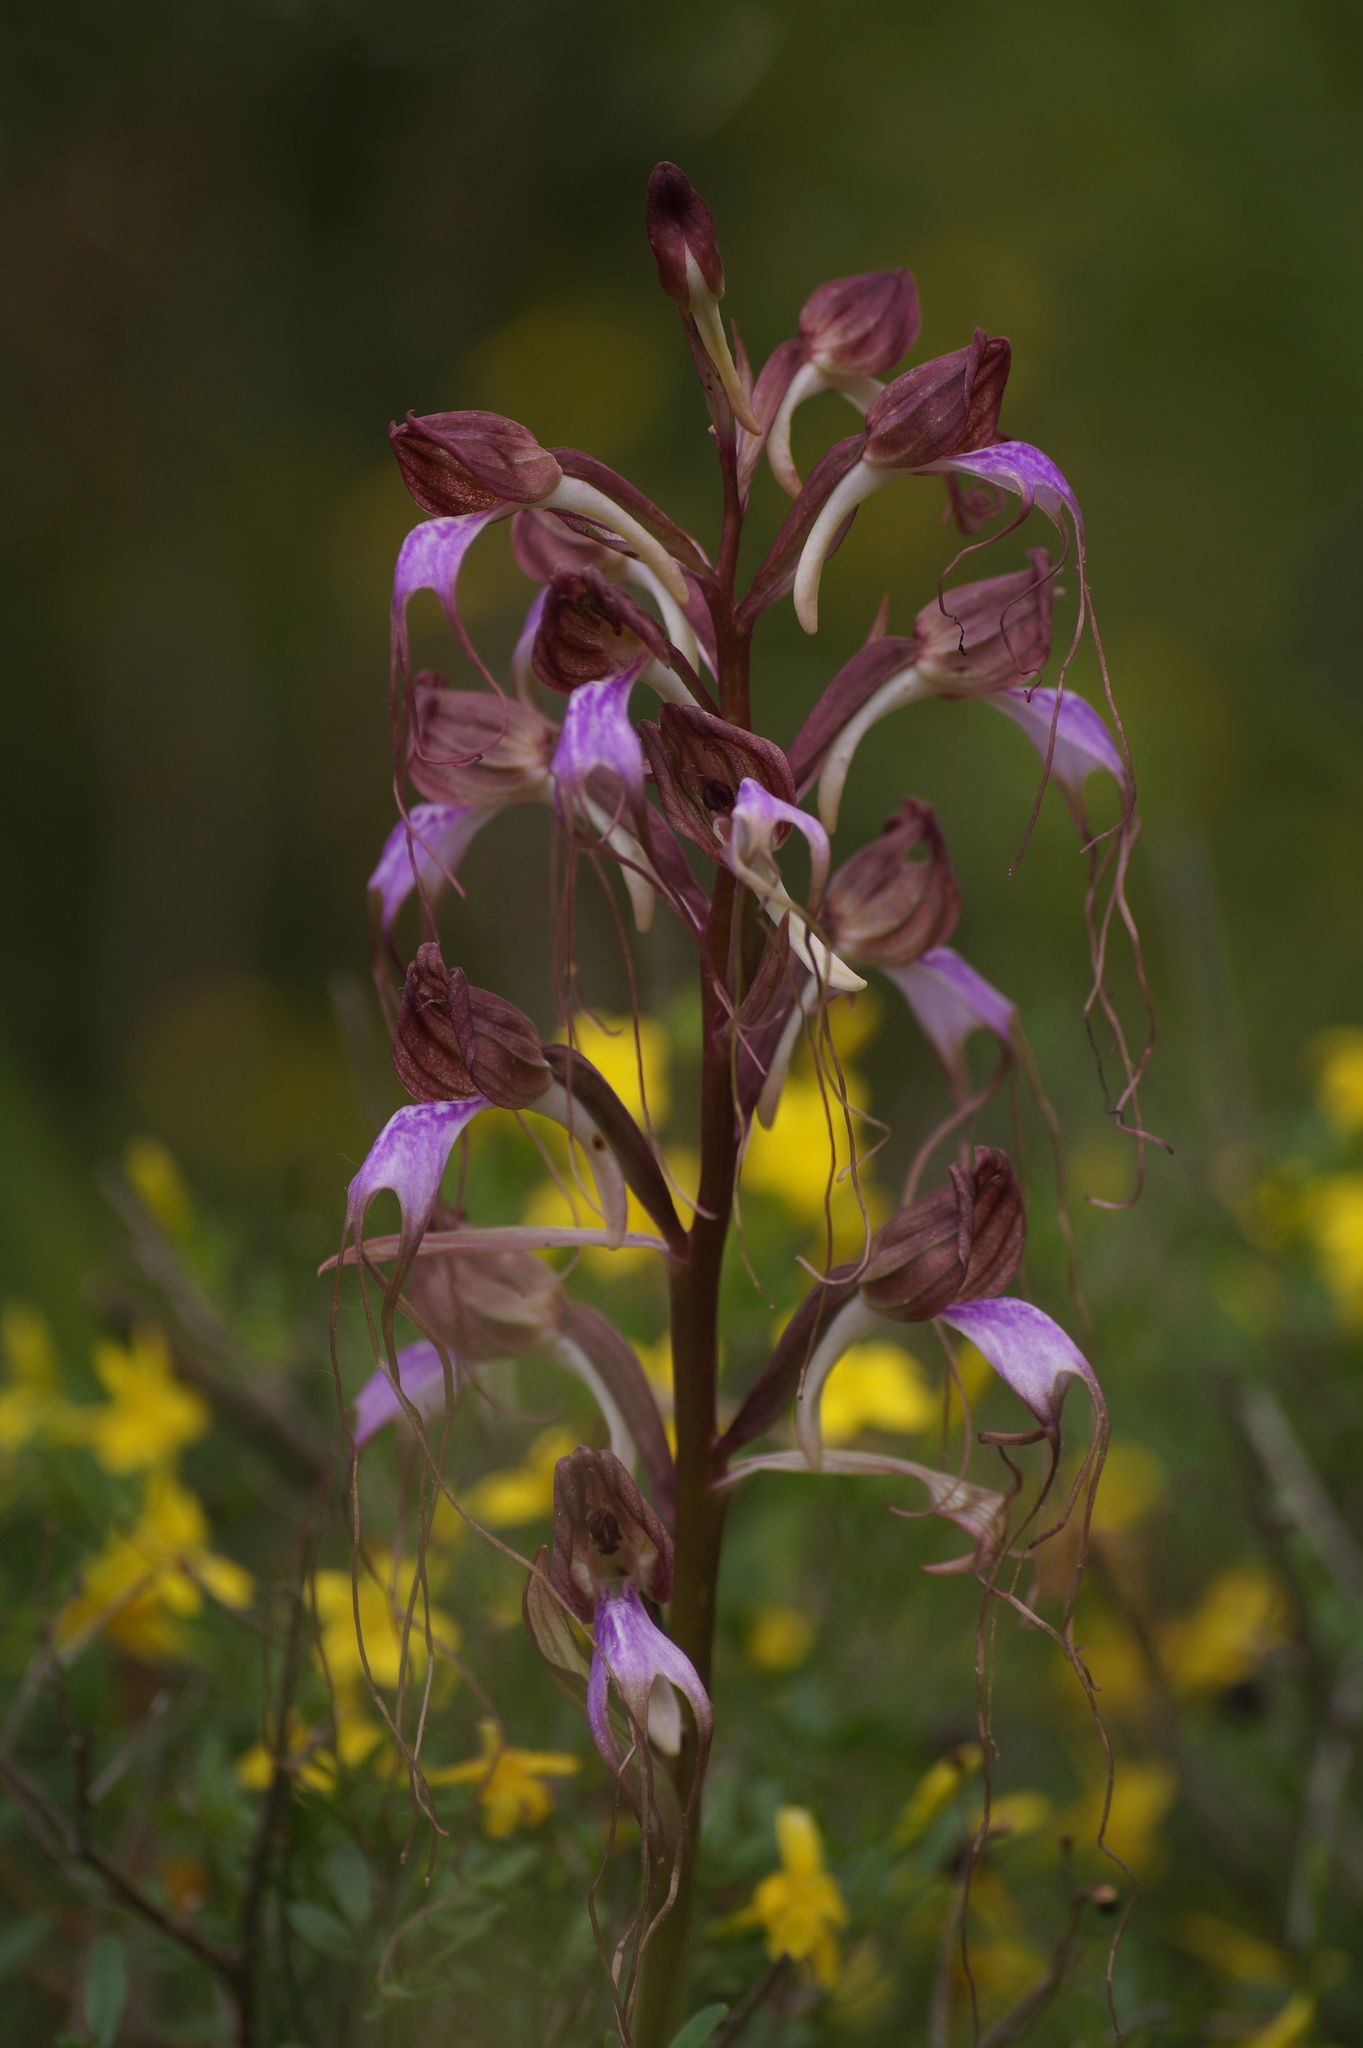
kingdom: Plantae
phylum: Tracheophyta
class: Liliopsida
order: Asparagales
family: Orchidaceae
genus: Himantoglossum
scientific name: Himantoglossum comperianum
